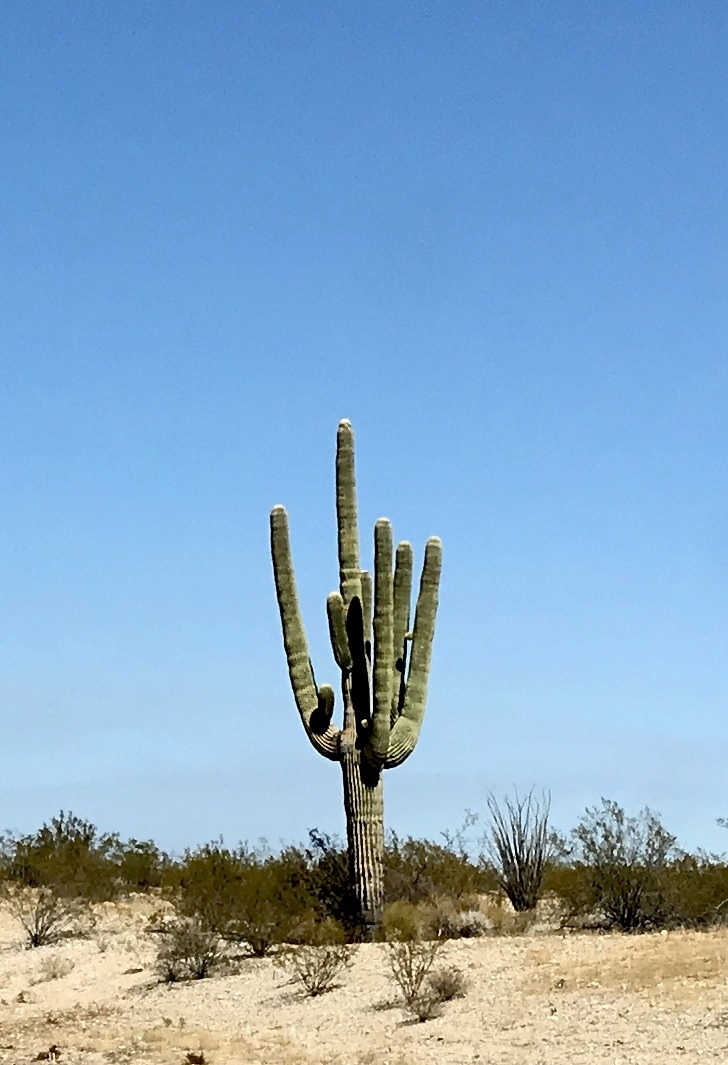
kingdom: Plantae
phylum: Tracheophyta
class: Magnoliopsida
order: Caryophyllales
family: Cactaceae
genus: Carnegiea
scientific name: Carnegiea gigantea
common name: Saguaro
